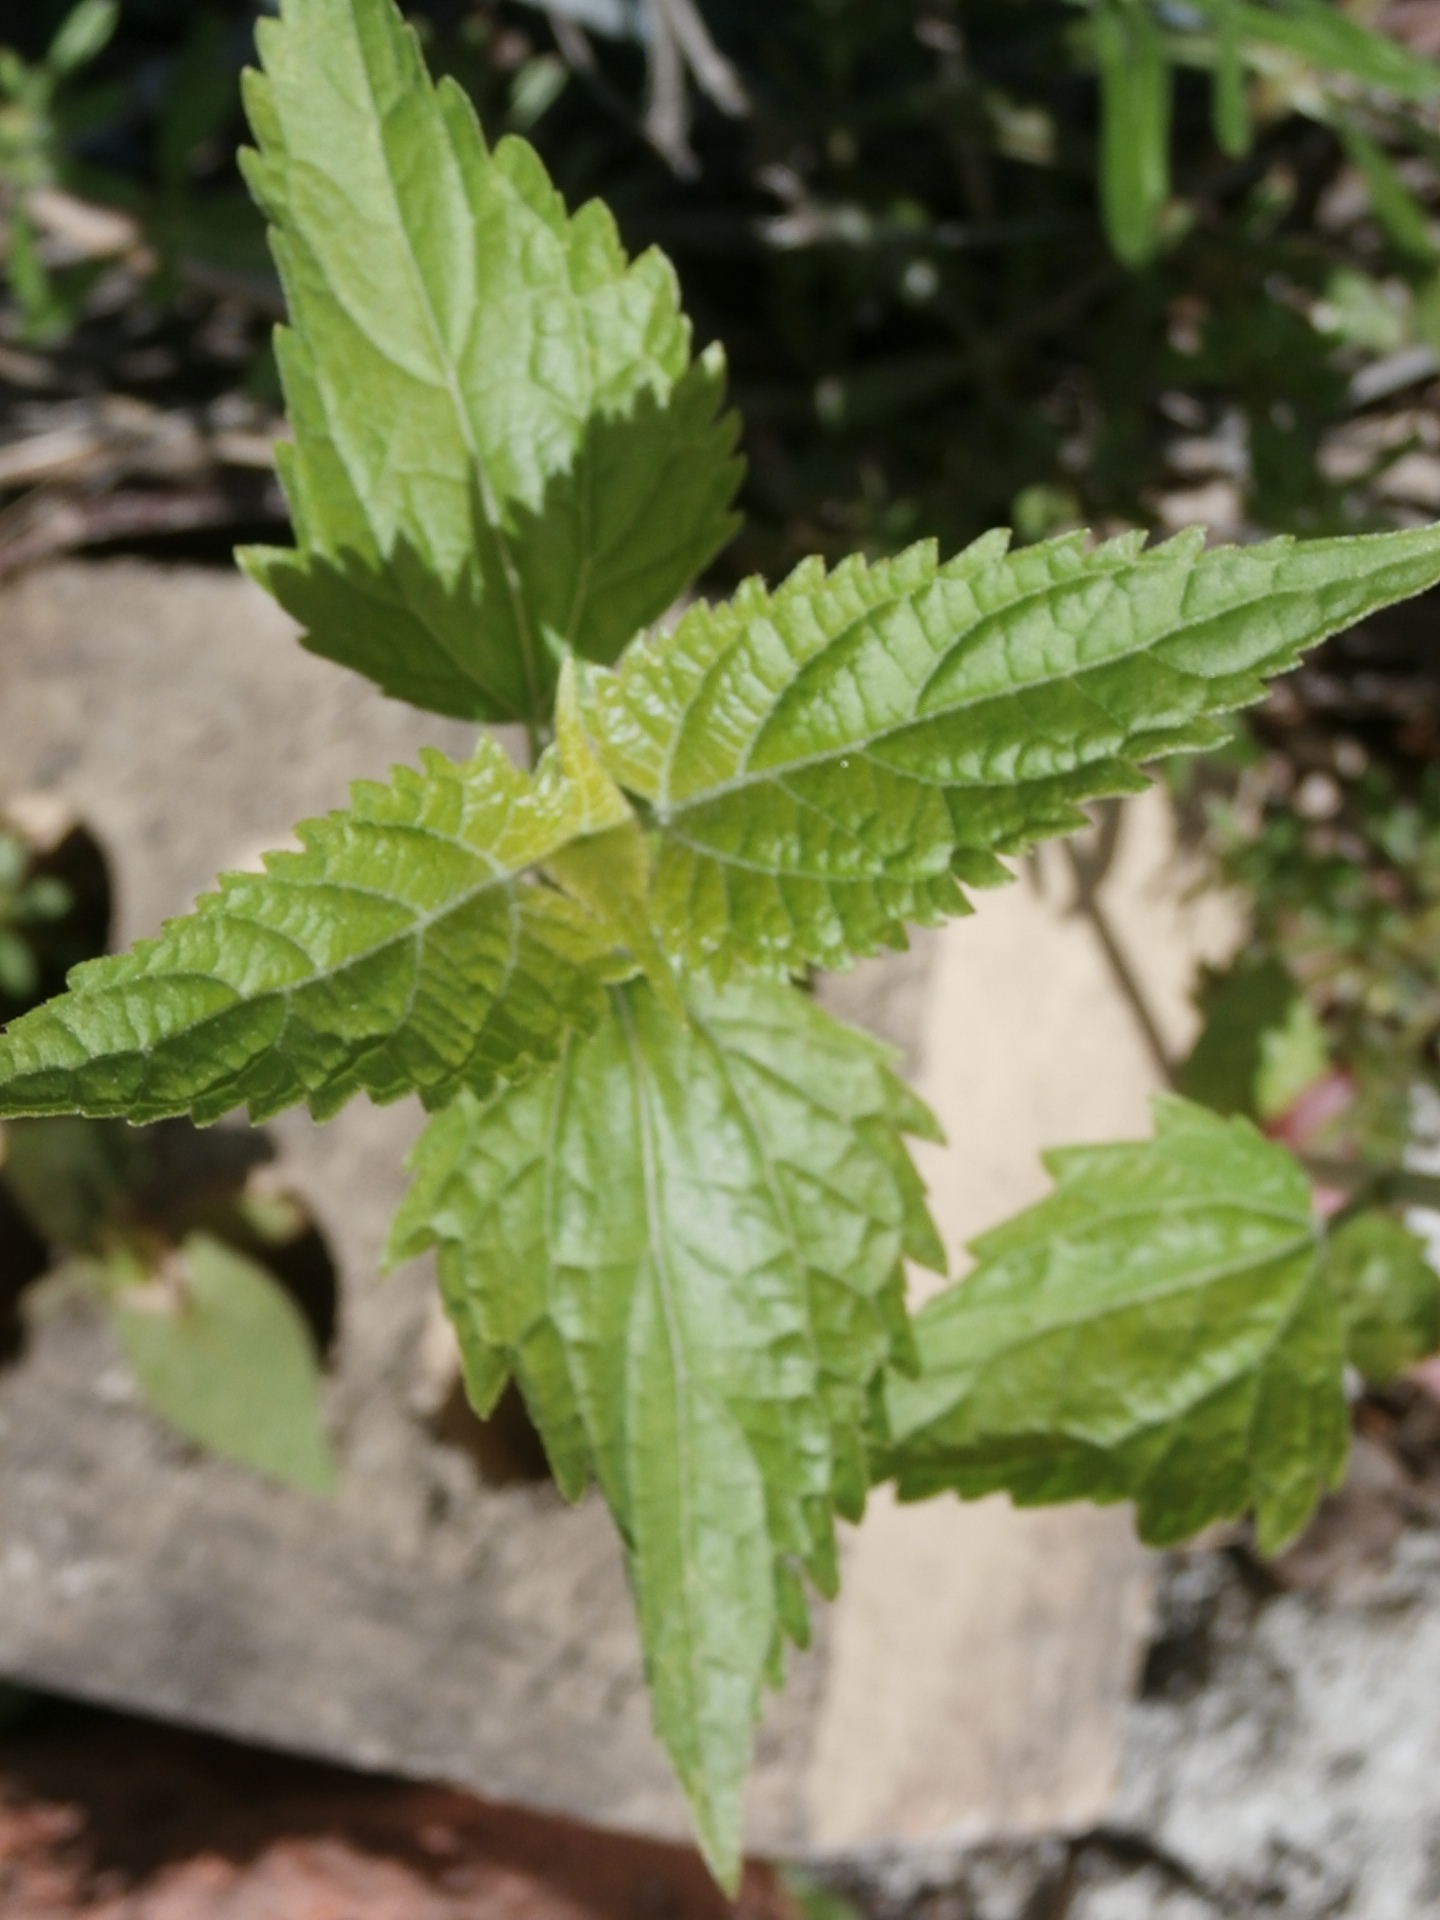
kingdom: Plantae
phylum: Tracheophyta
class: Magnoliopsida
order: Asterales
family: Asteraceae
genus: Ageratina
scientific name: Ageratina altissima
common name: White snakeroot
